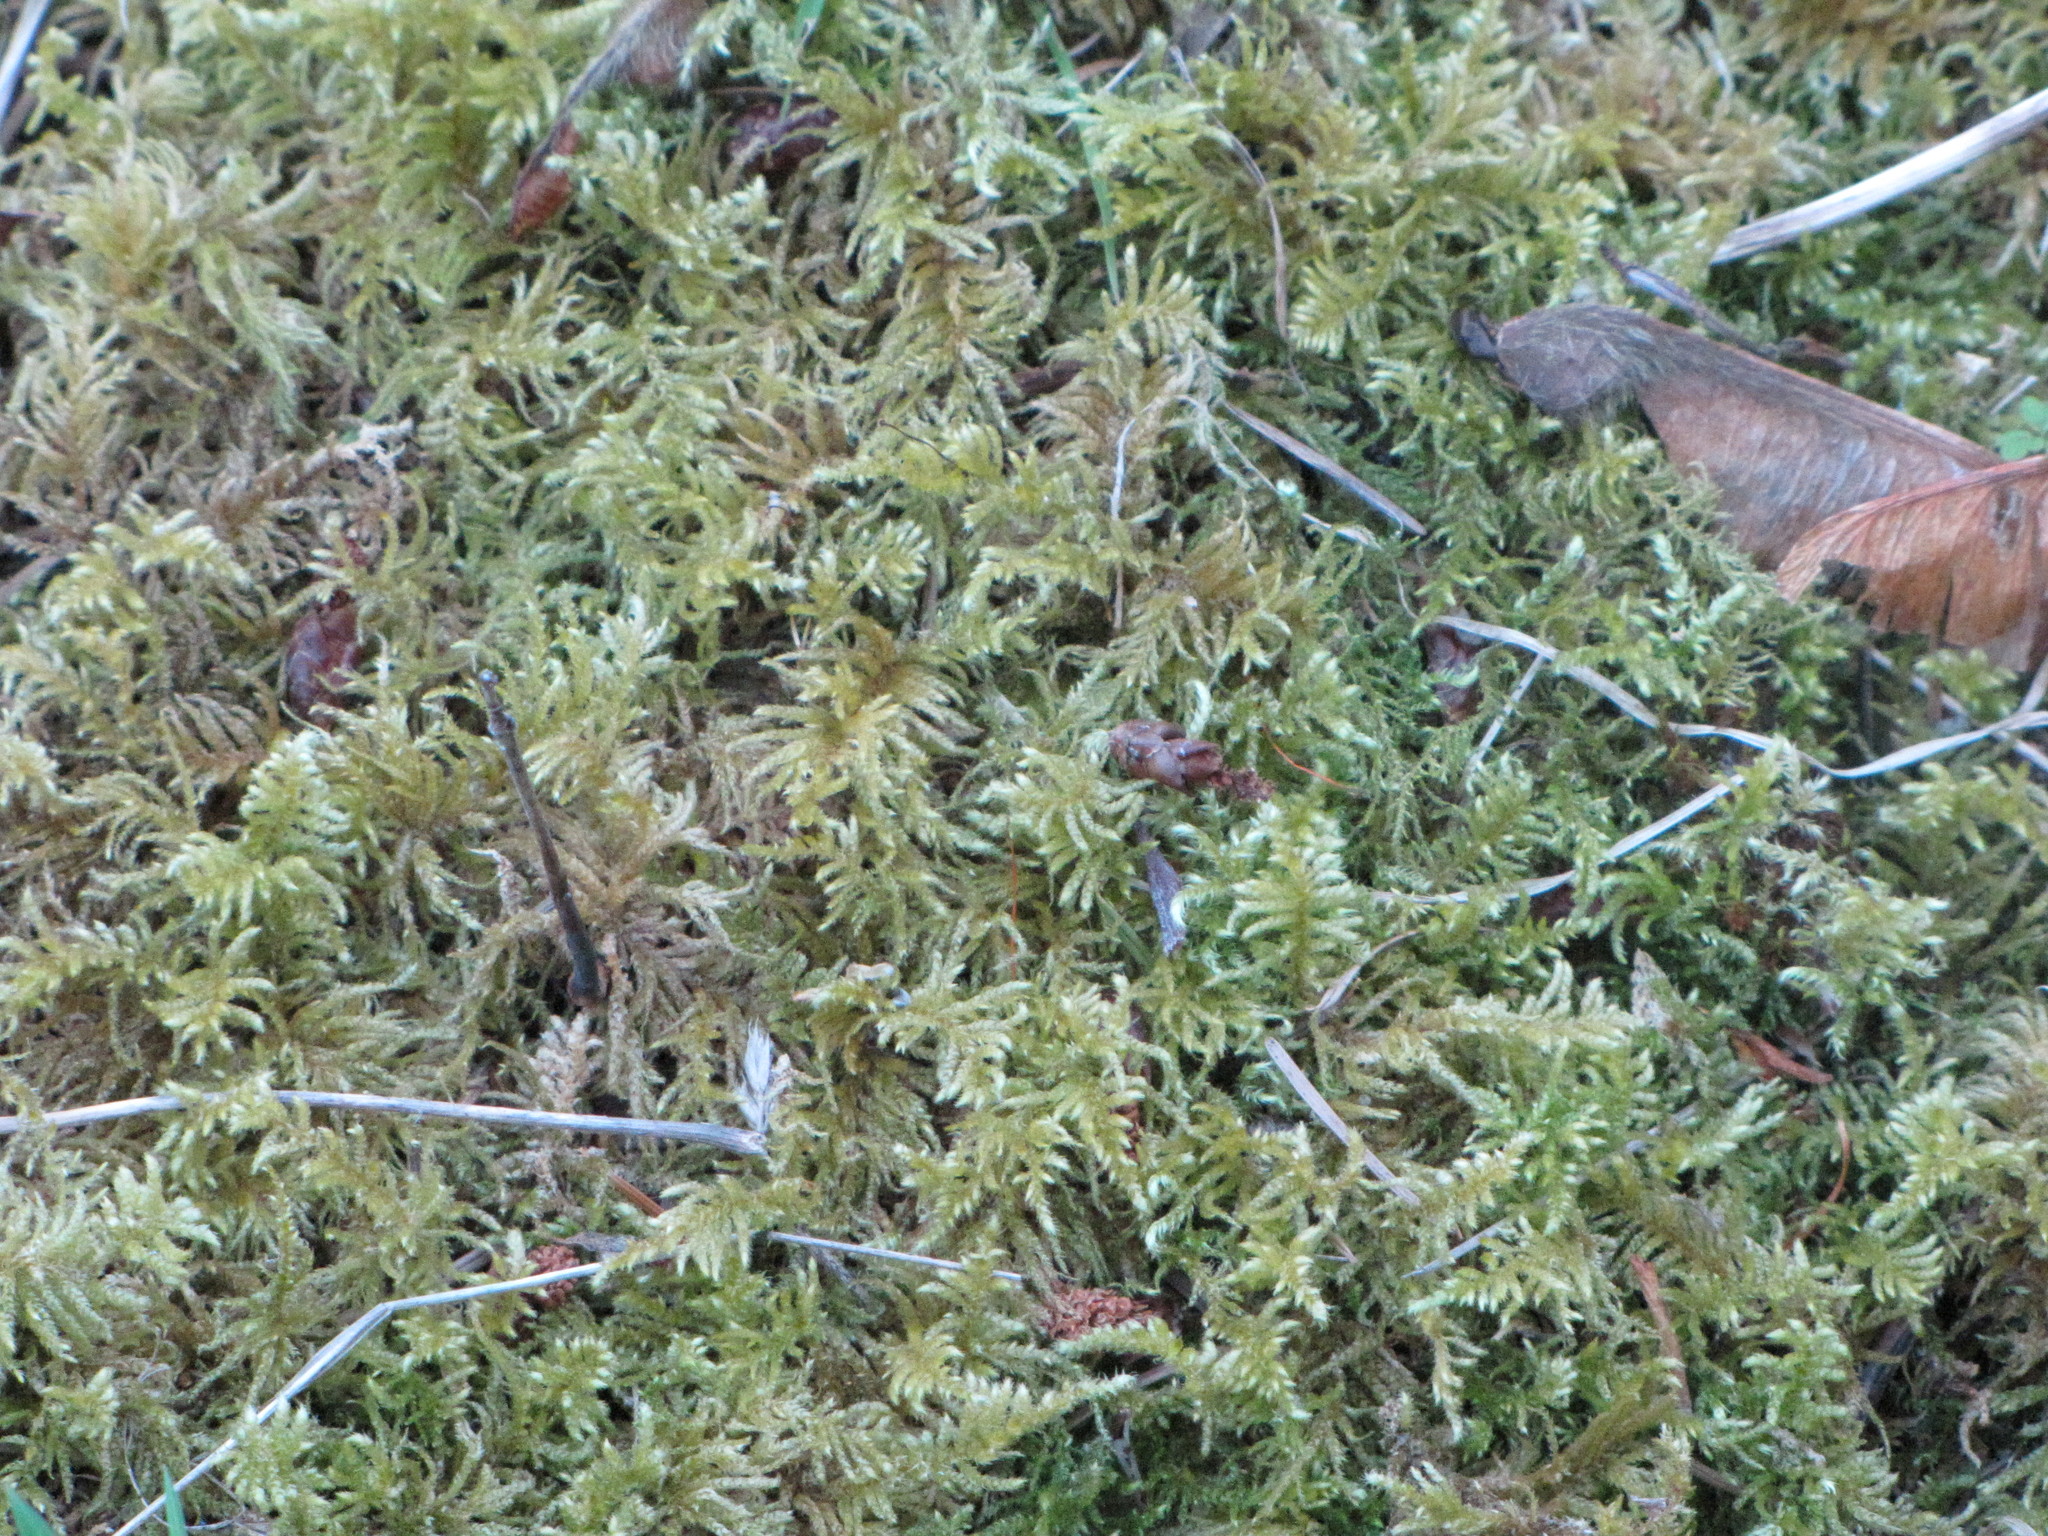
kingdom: Plantae
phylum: Bryophyta
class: Bryopsida
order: Hypnales
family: Brachytheciaceae
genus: Kindbergia
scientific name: Kindbergia oregana
